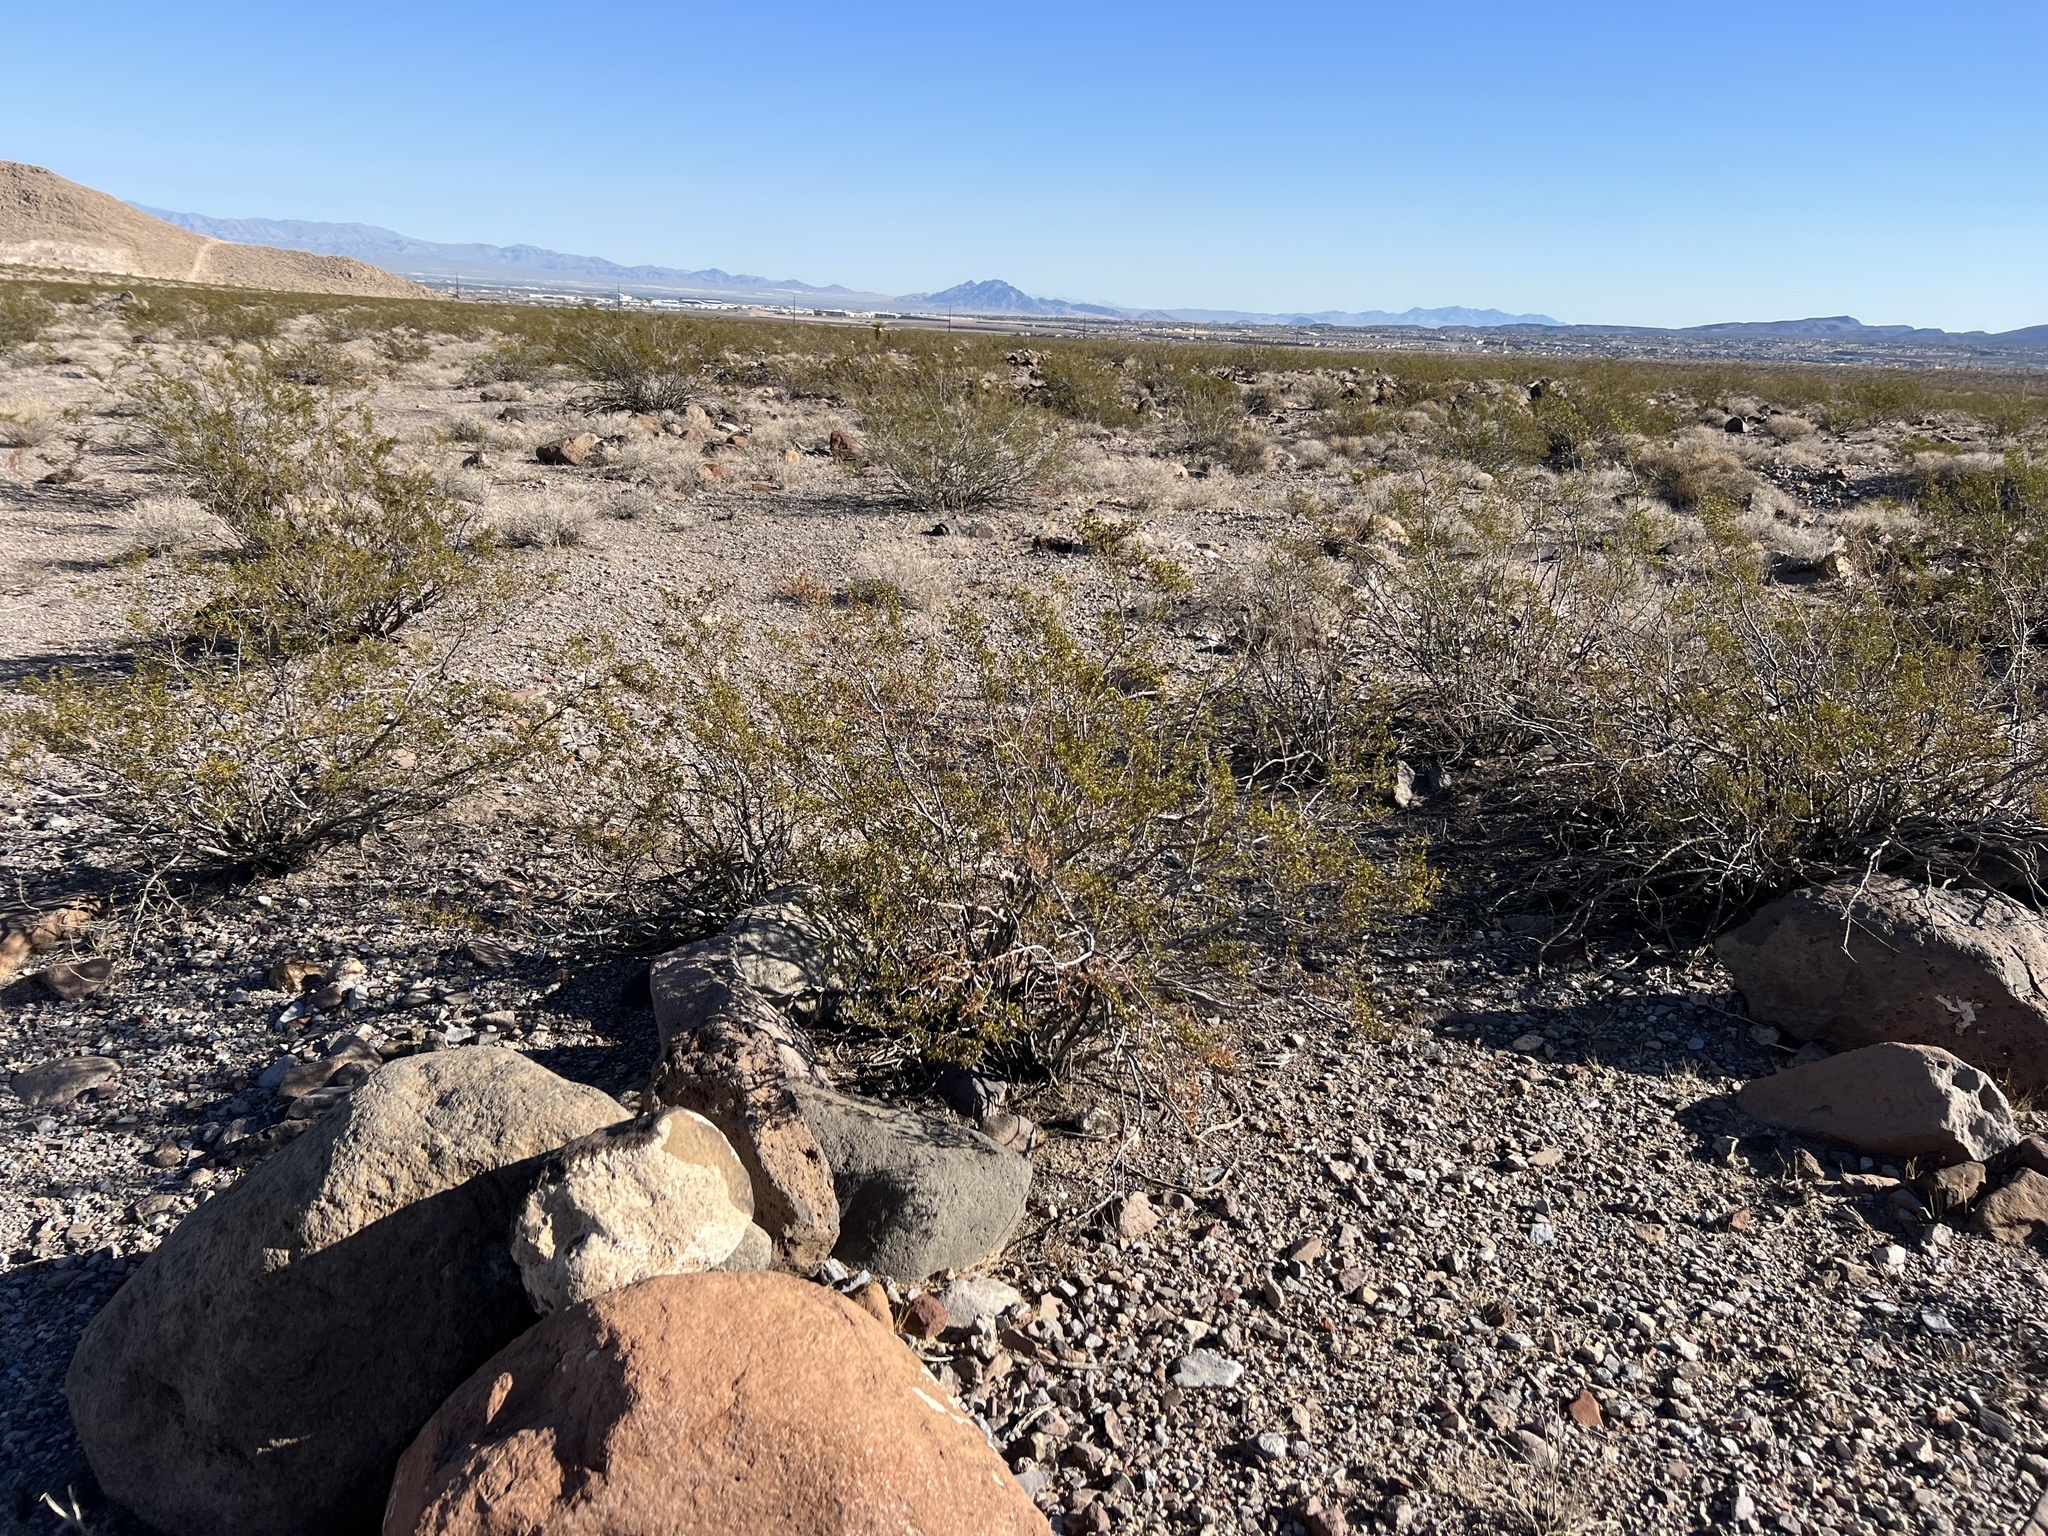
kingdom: Plantae
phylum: Tracheophyta
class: Magnoliopsida
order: Zygophyllales
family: Zygophyllaceae
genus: Larrea
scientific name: Larrea tridentata
